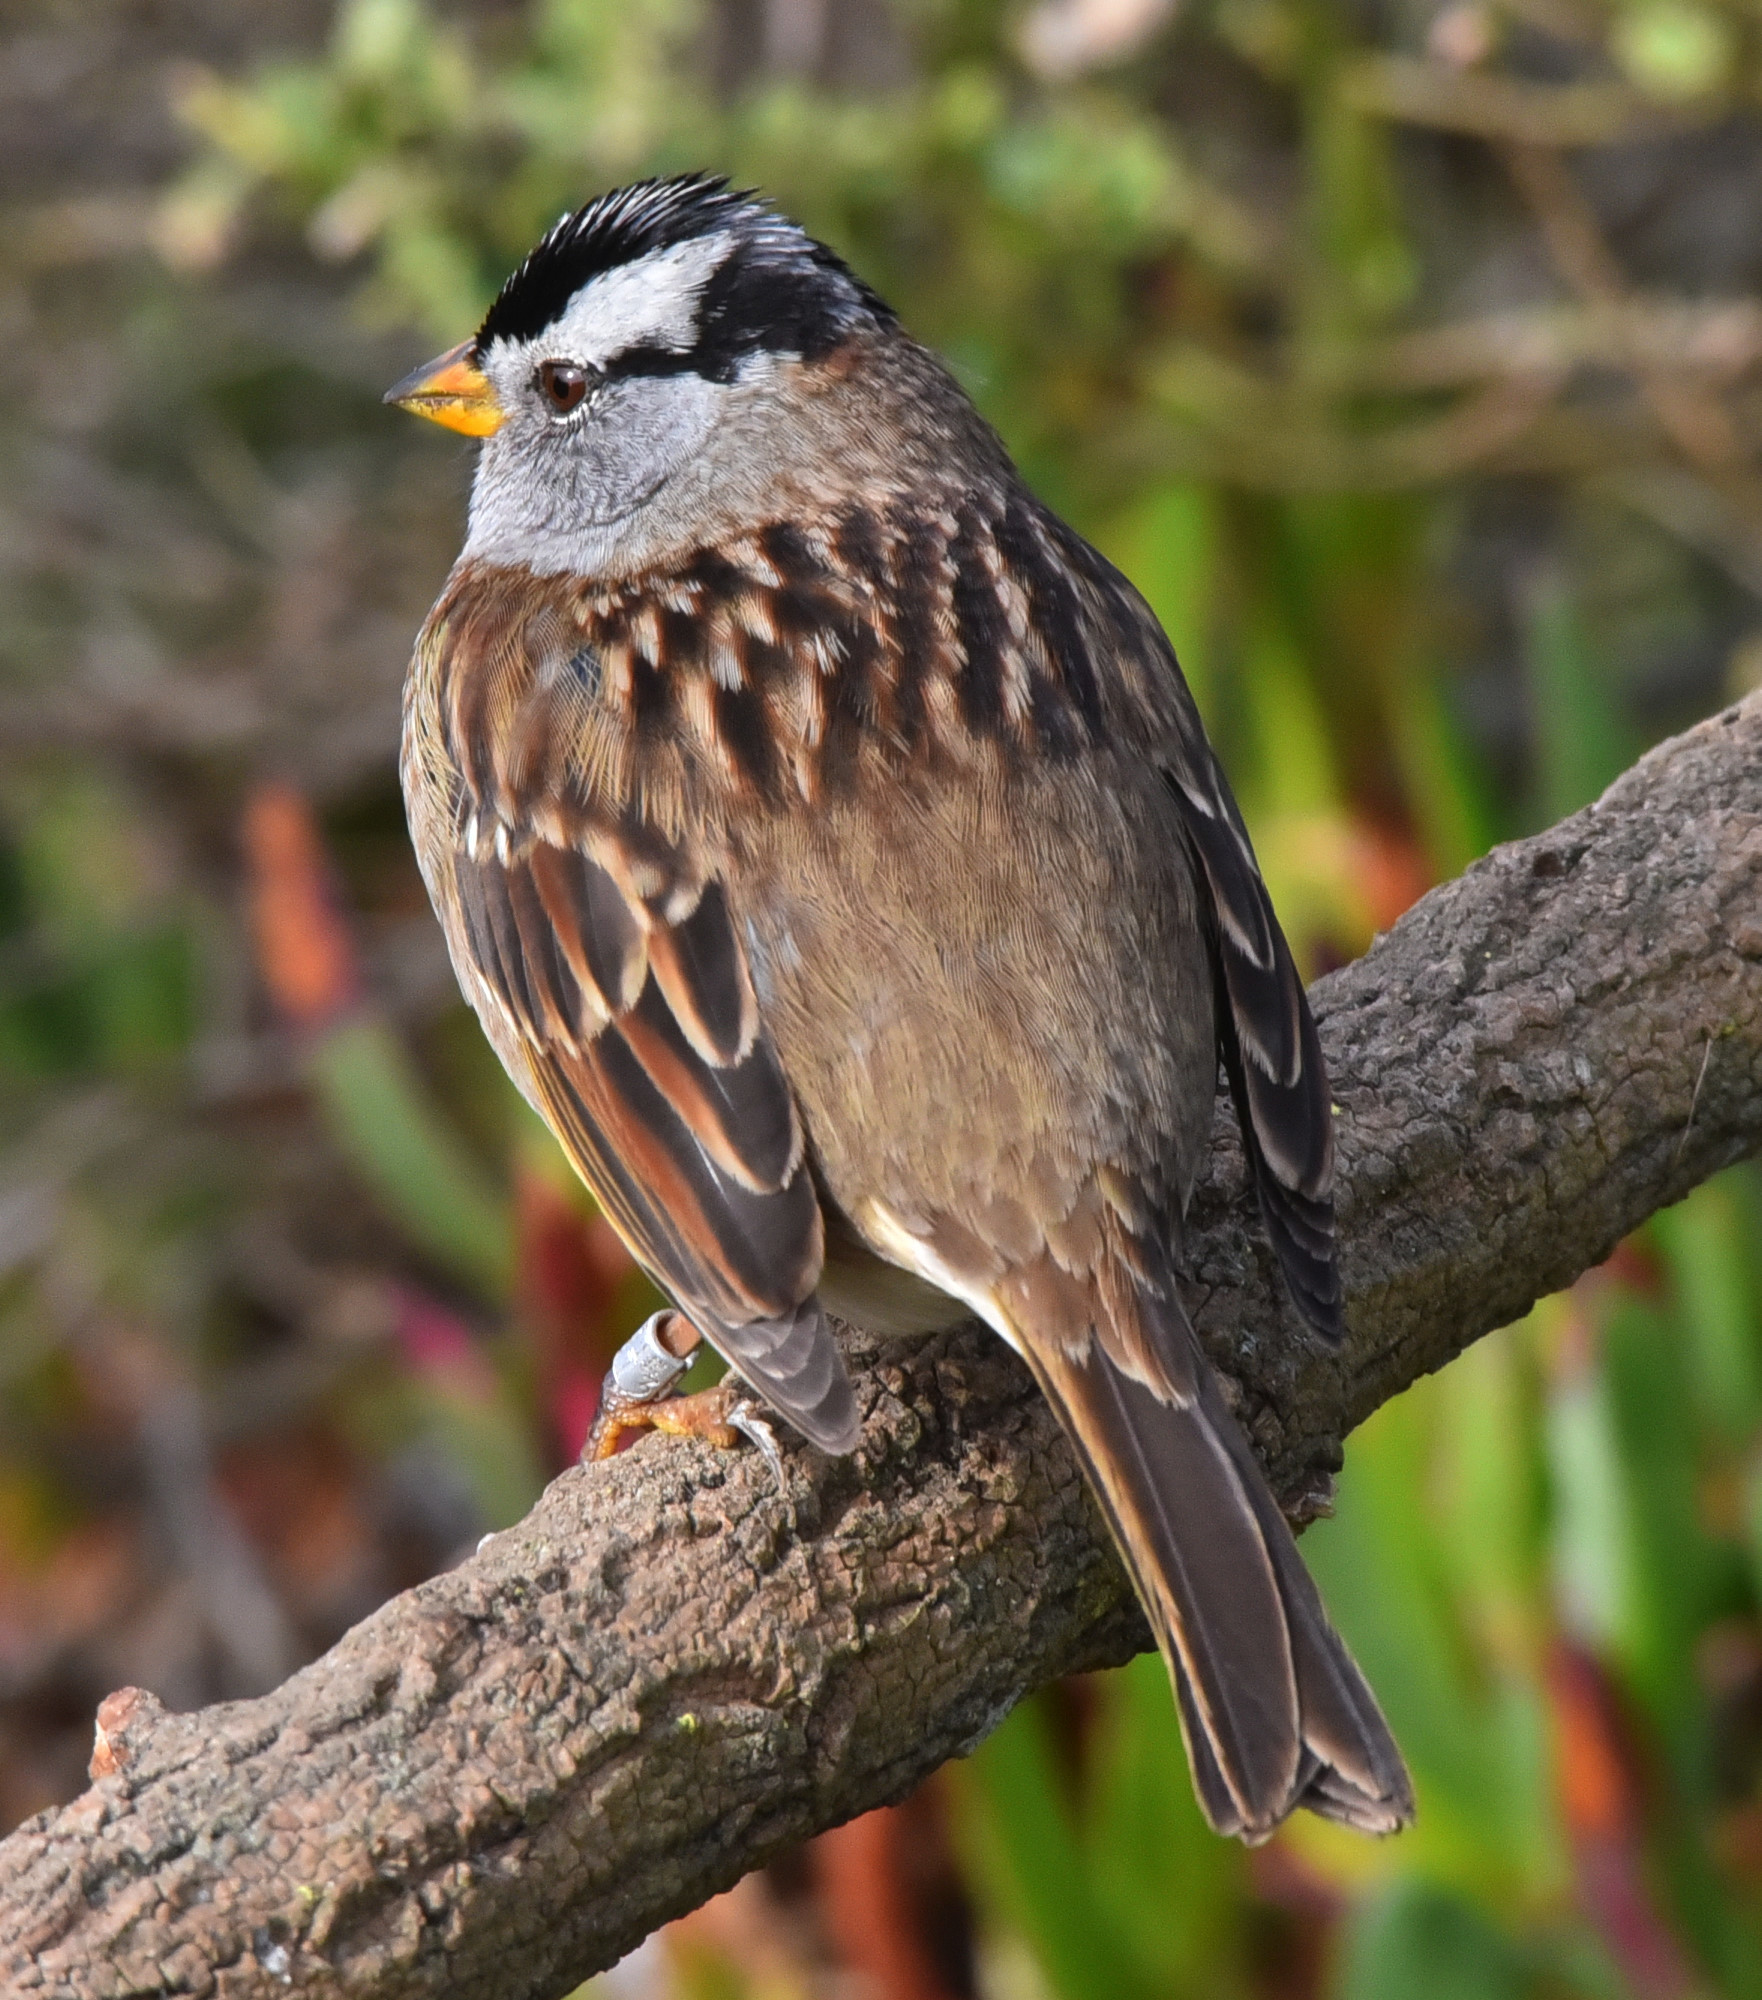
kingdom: Animalia
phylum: Chordata
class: Aves
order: Passeriformes
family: Passerellidae
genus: Zonotrichia
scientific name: Zonotrichia leucophrys
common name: White-crowned sparrow
